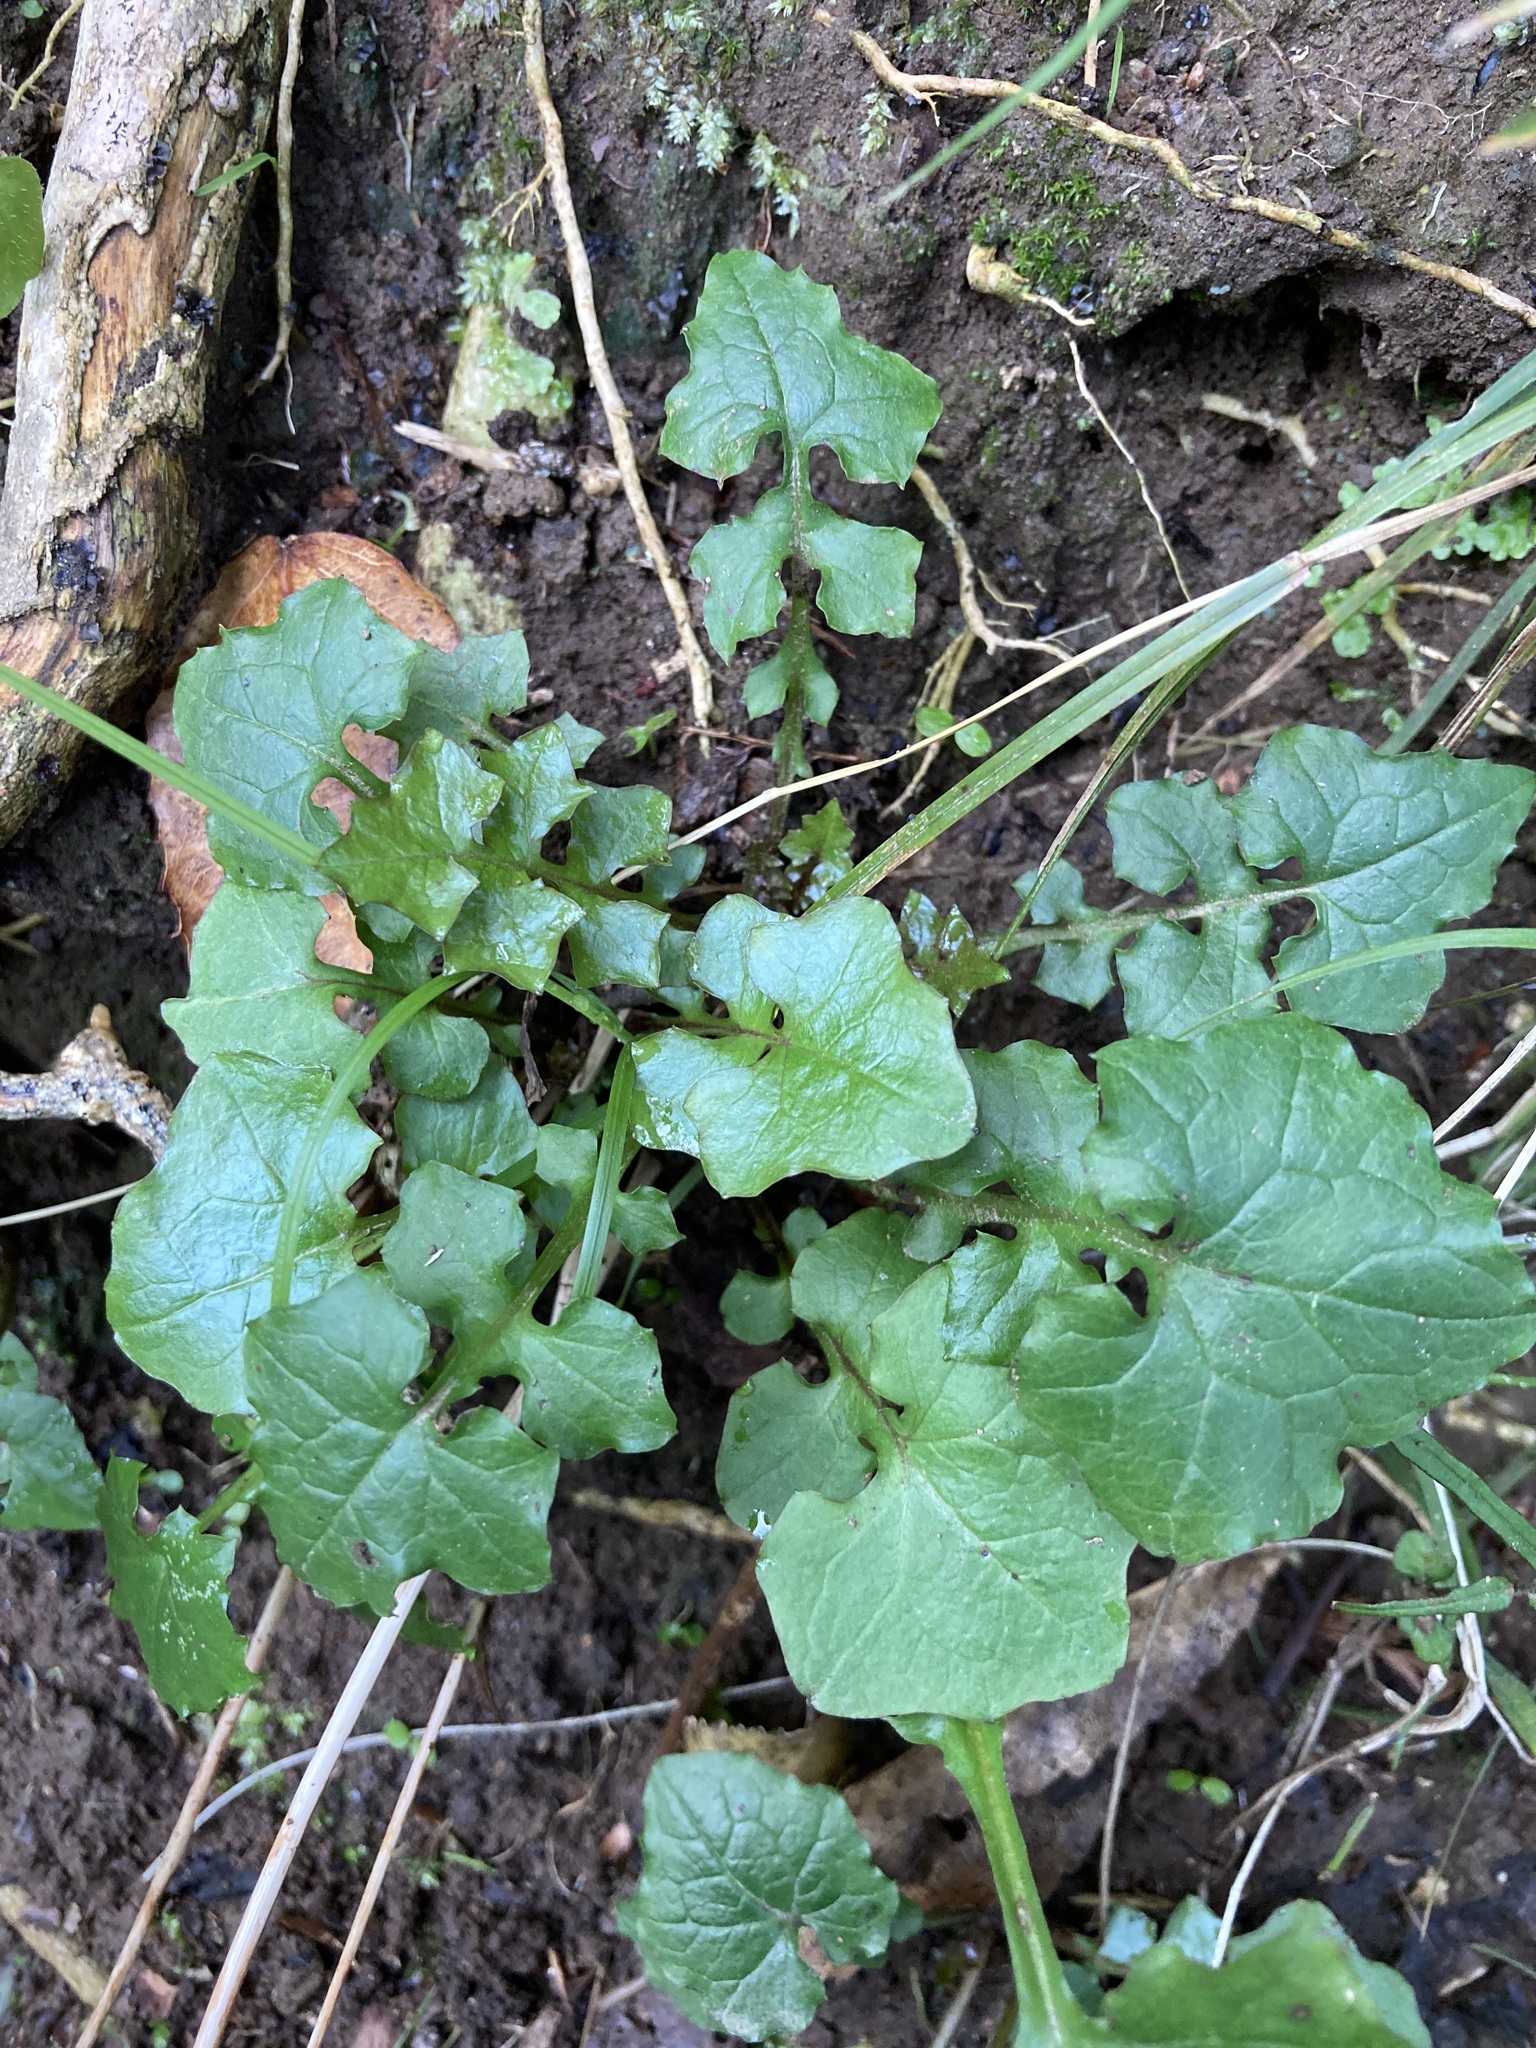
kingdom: Plantae
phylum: Tracheophyta
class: Magnoliopsida
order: Asterales
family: Asteraceae
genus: Mycelis
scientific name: Mycelis muralis
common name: Wall lettuce
